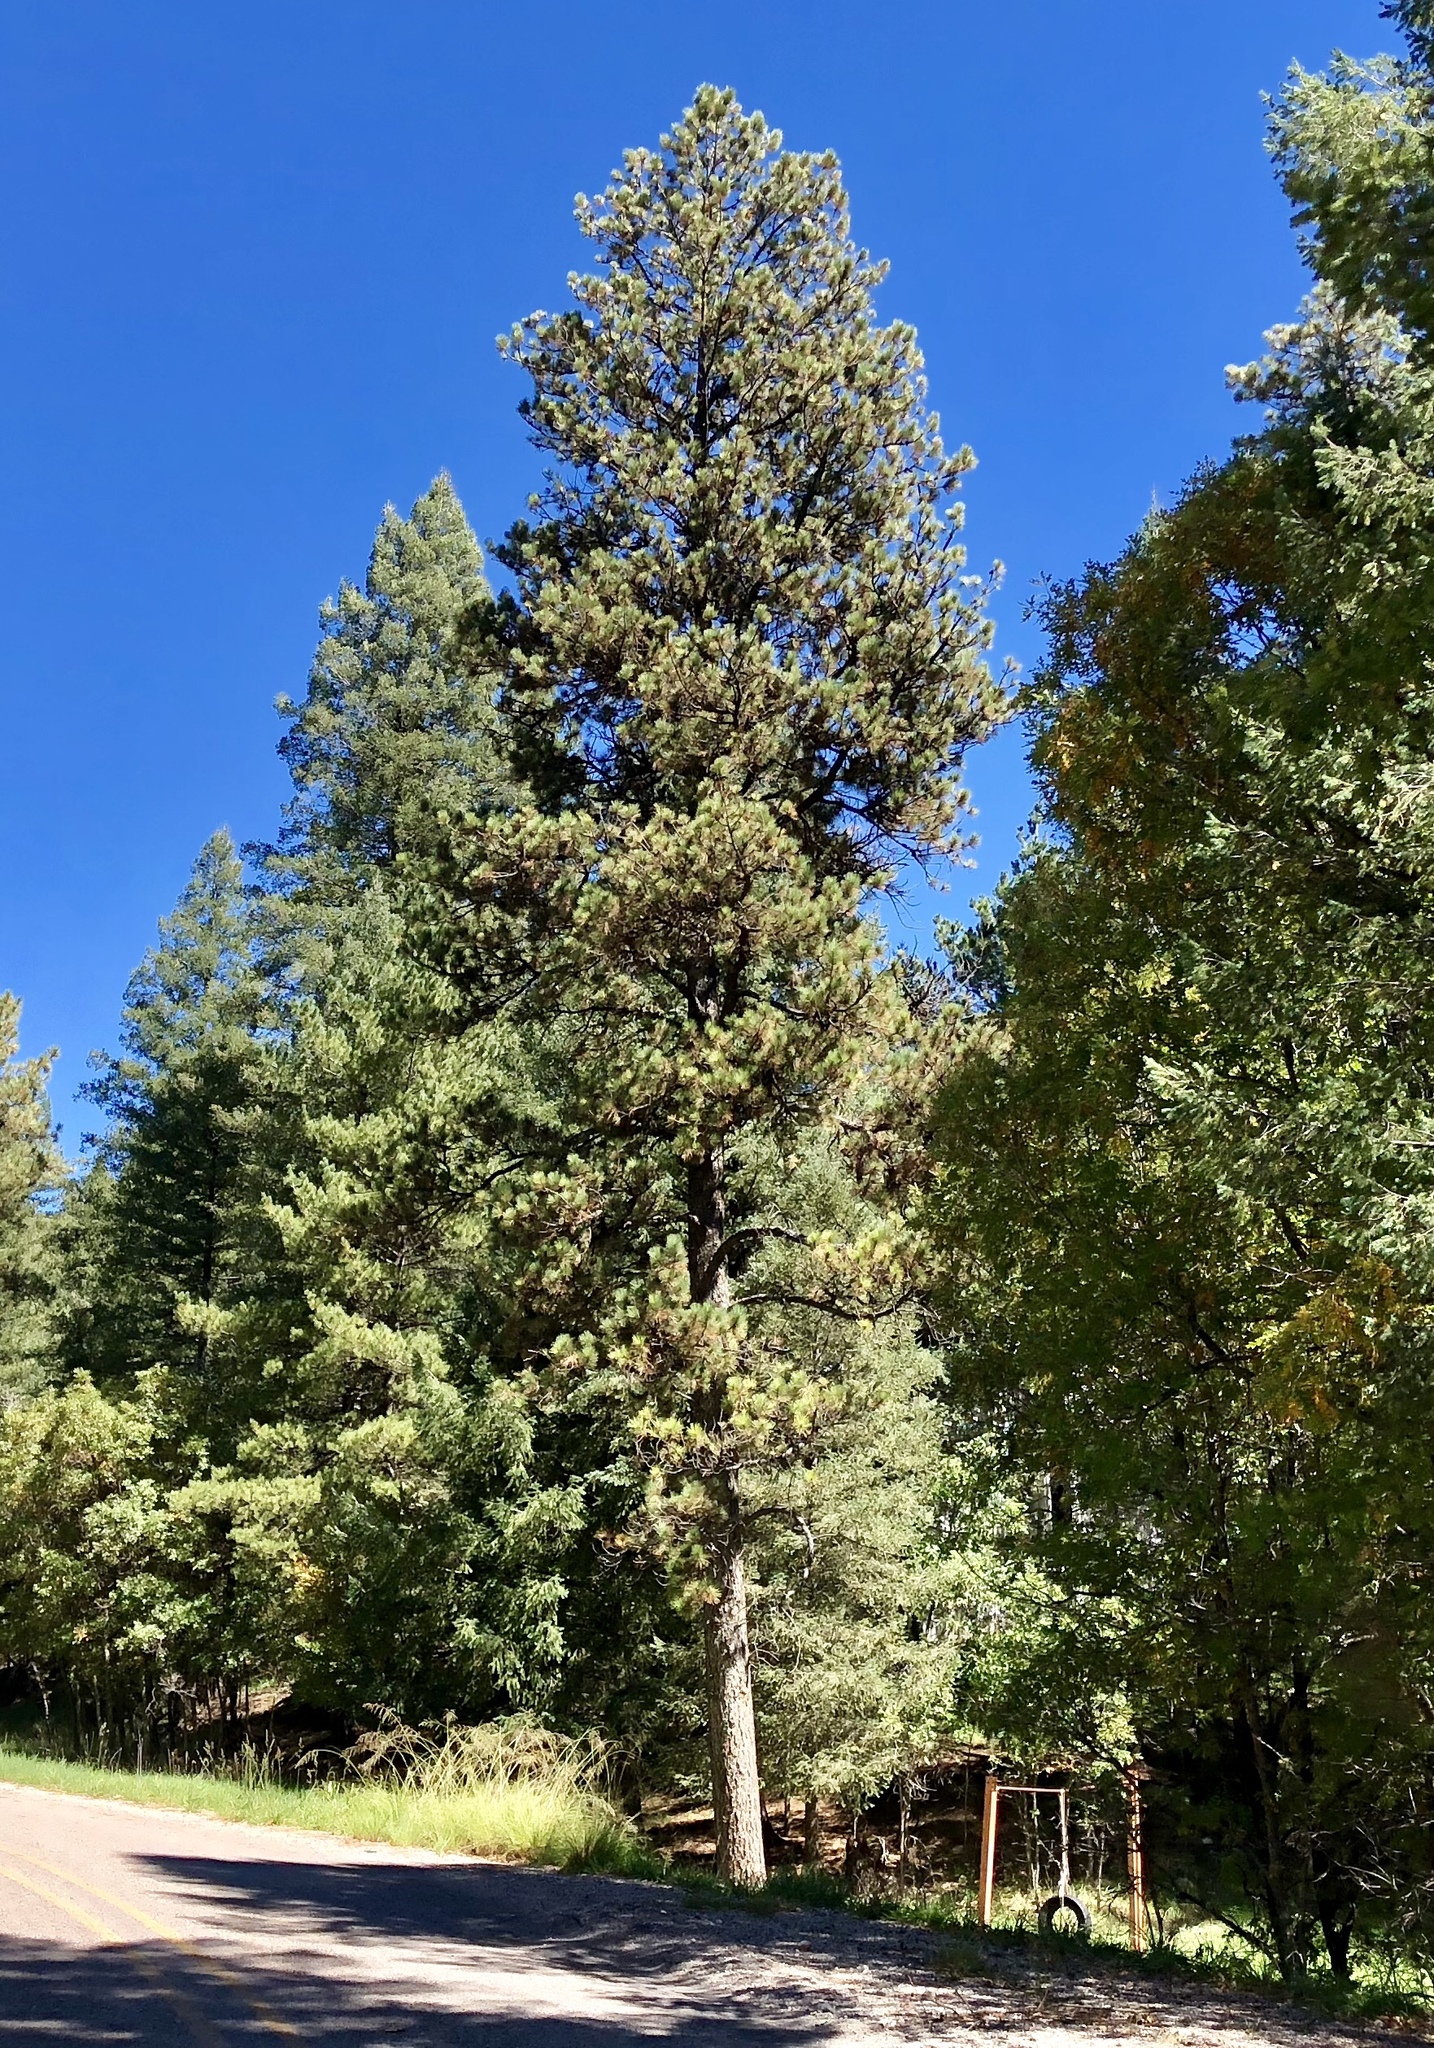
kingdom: Plantae
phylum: Tracheophyta
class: Pinopsida
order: Pinales
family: Pinaceae
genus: Pinus
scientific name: Pinus ponderosa
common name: Western yellow-pine
